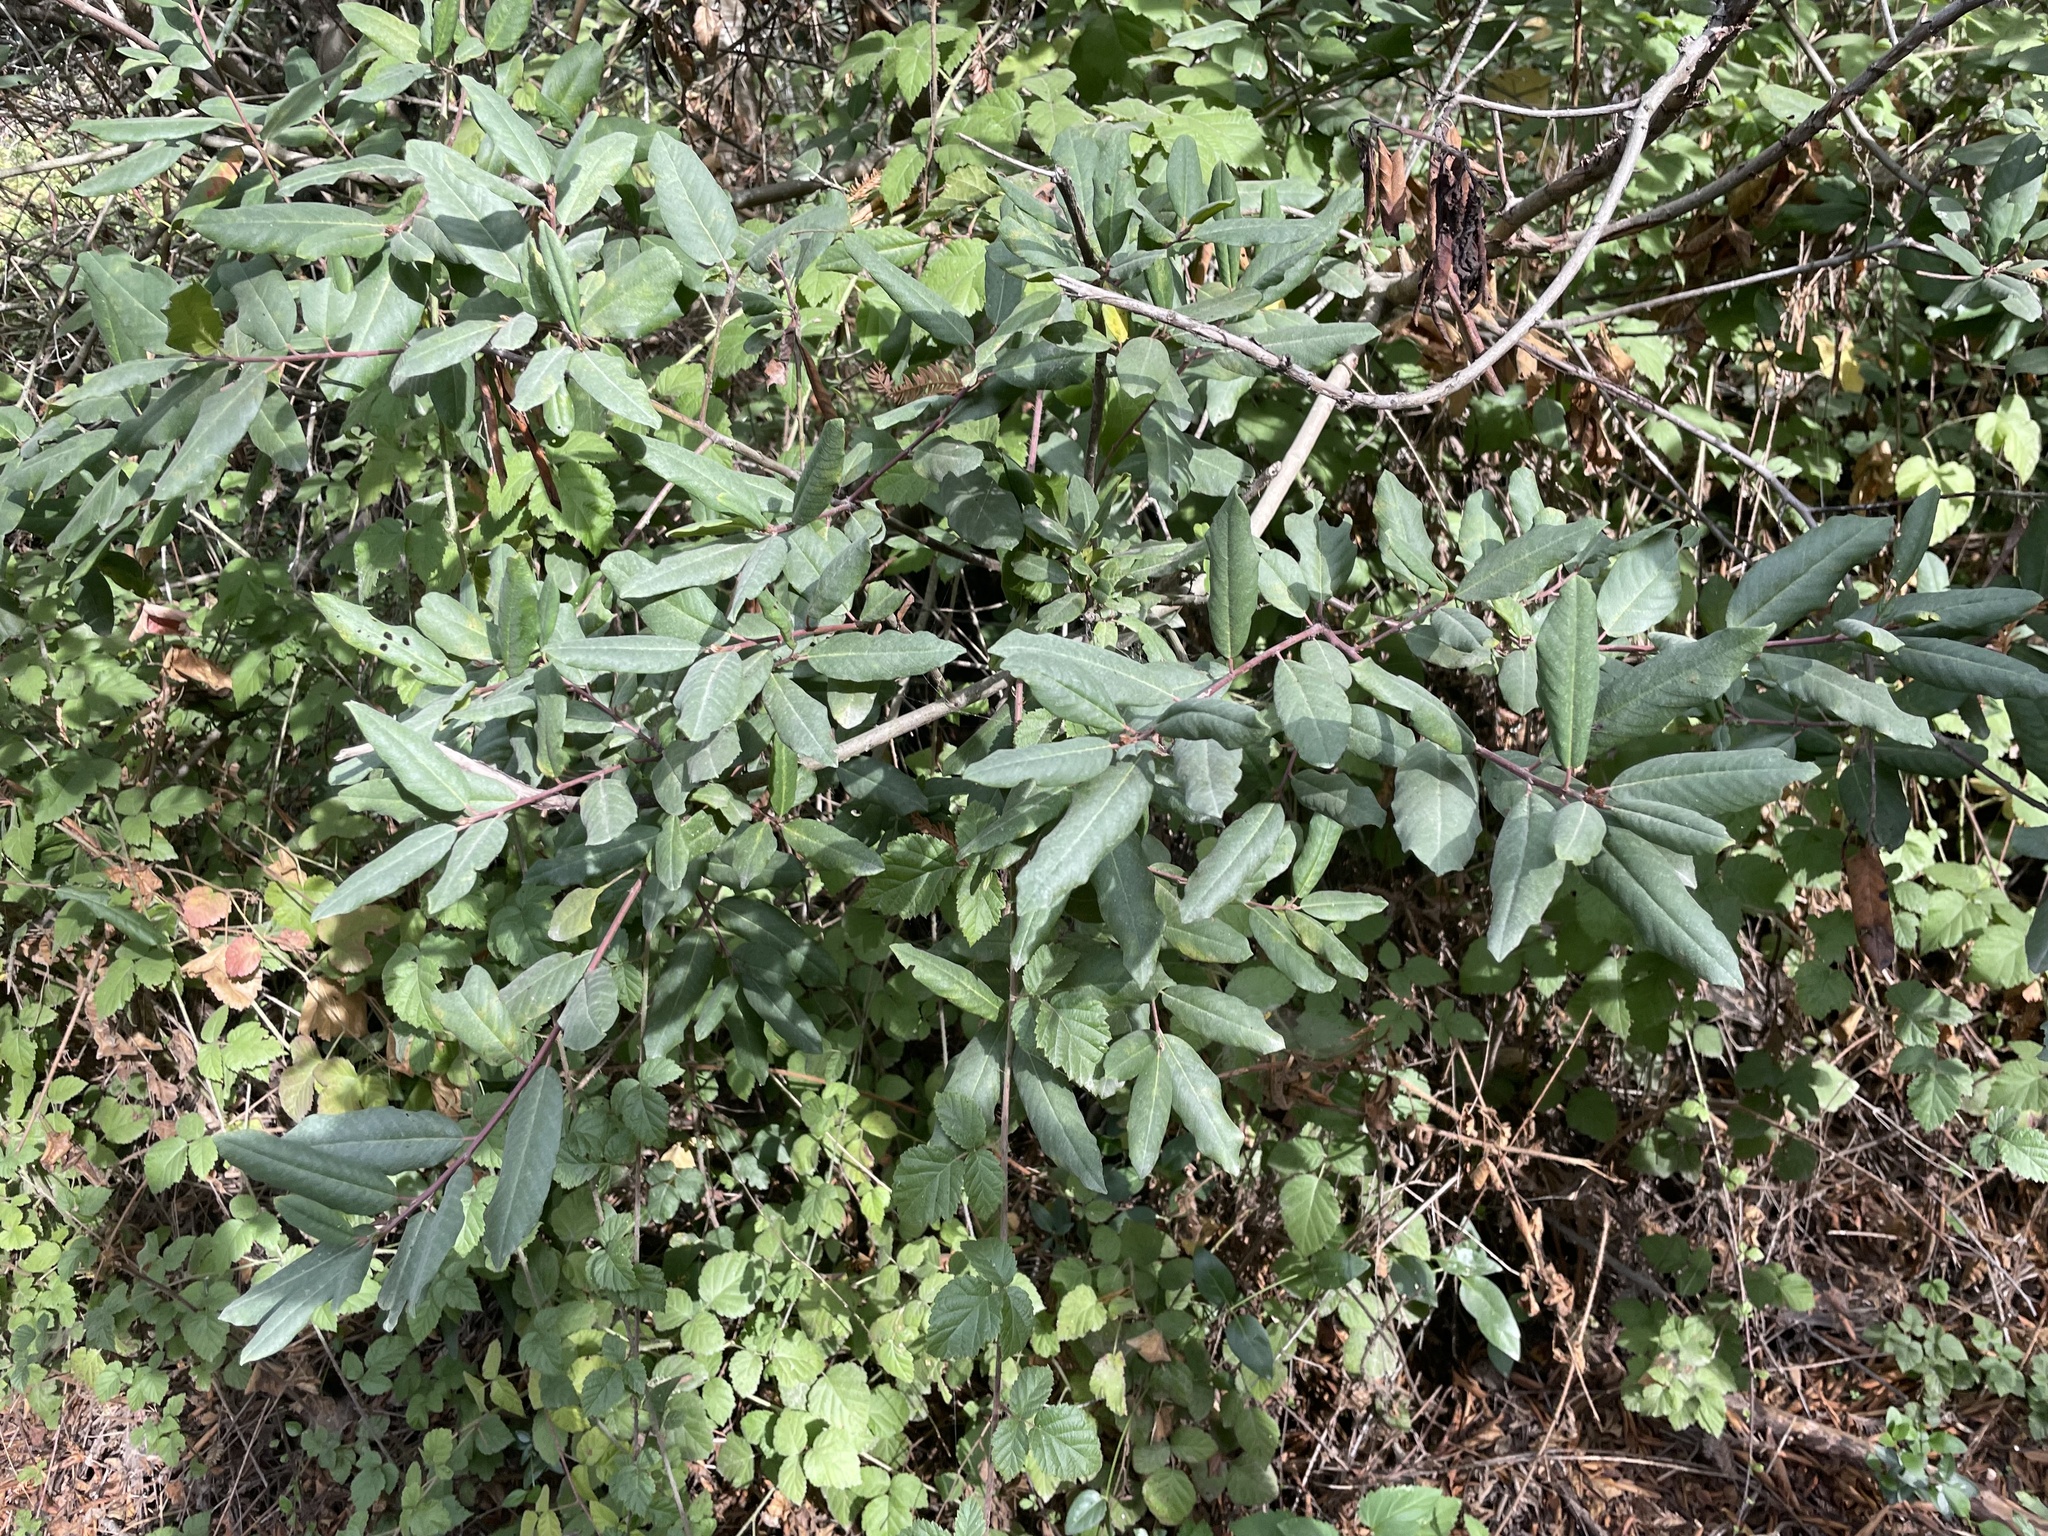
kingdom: Plantae
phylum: Tracheophyta
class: Magnoliopsida
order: Rosales
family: Rhamnaceae
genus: Frangula
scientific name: Frangula californica
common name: California buckthorn
